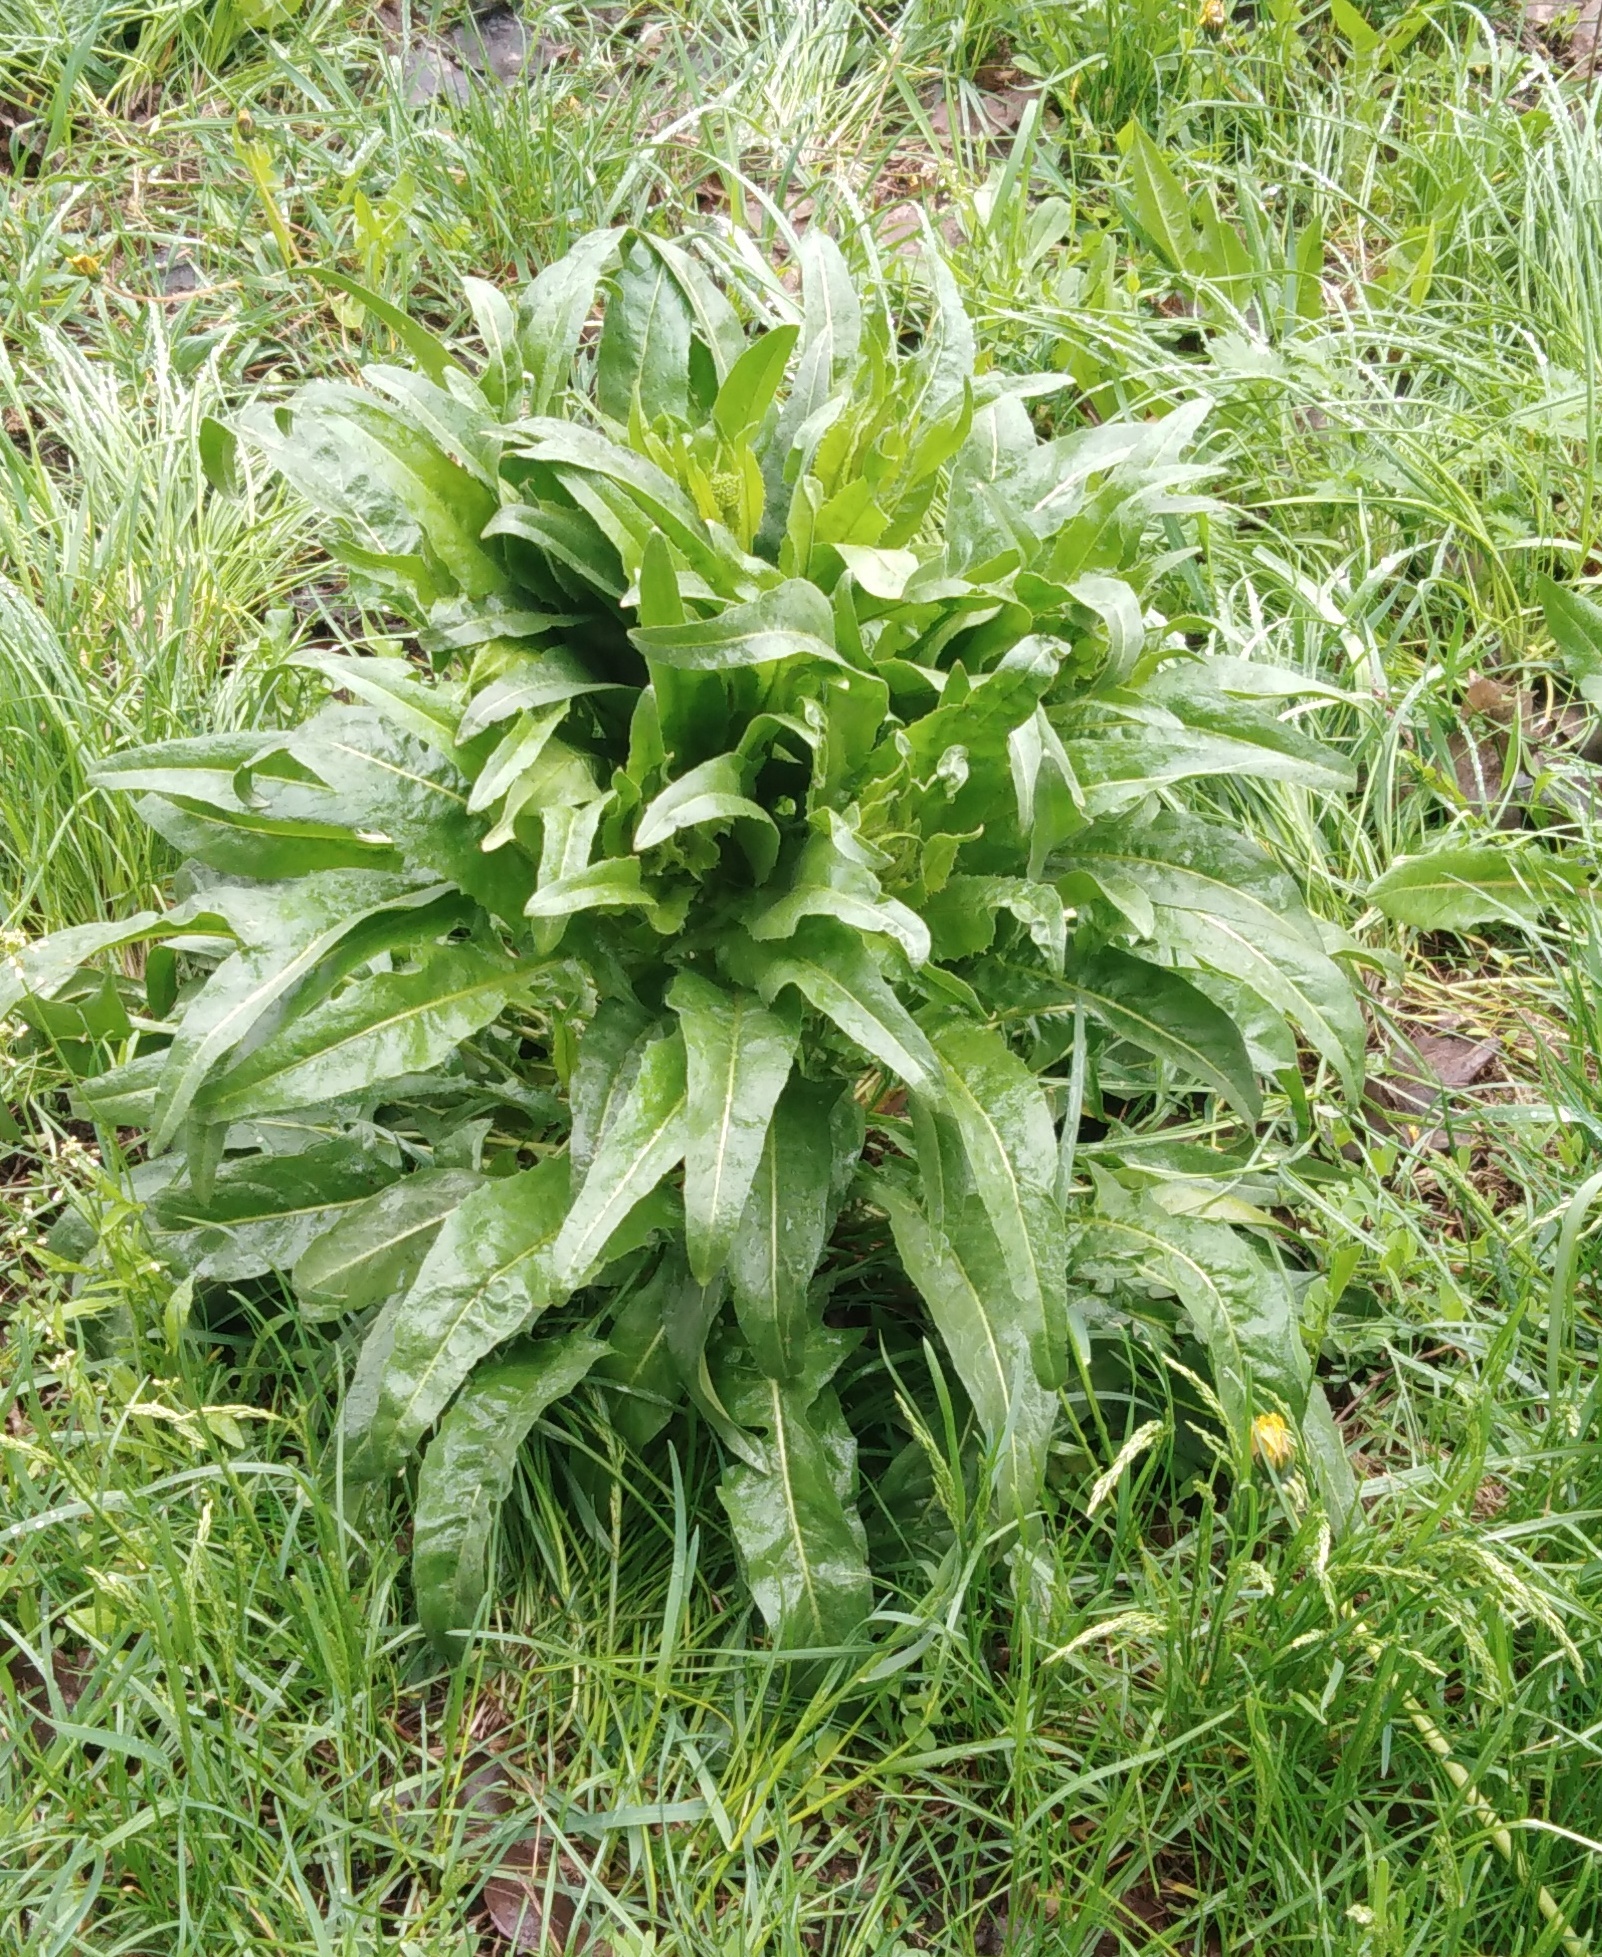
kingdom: Plantae
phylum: Tracheophyta
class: Magnoliopsida
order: Brassicales
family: Brassicaceae
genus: Bunias
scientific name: Bunias orientalis
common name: Warty-cabbage
